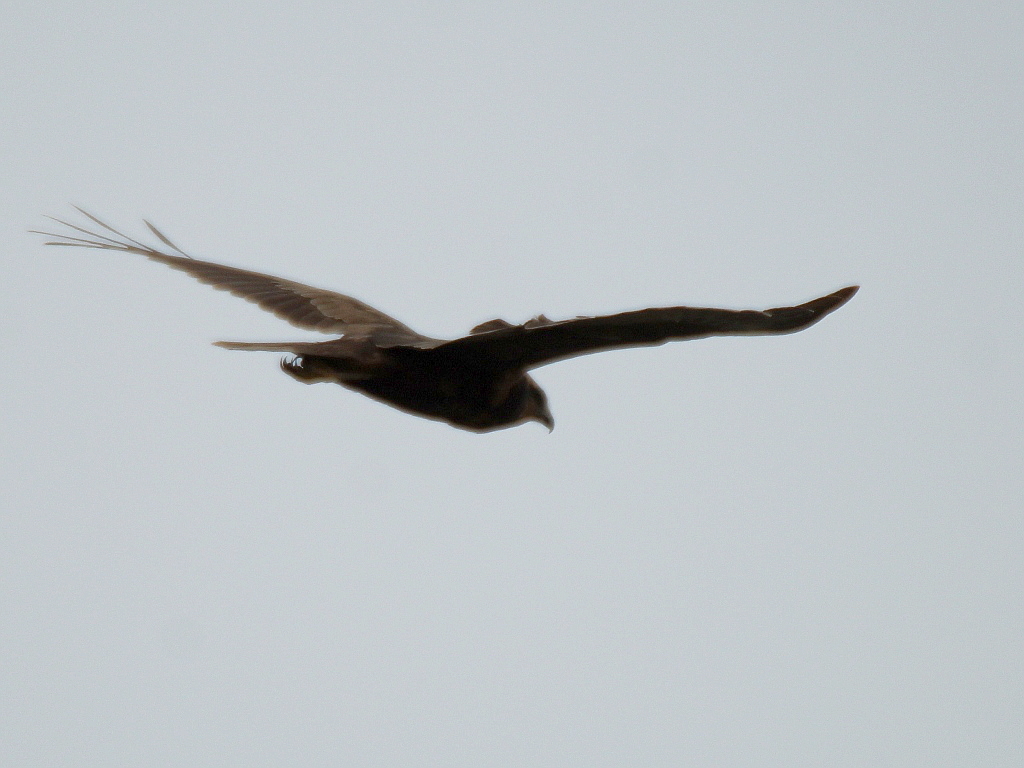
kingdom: Animalia
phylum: Chordata
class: Aves
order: Accipitriformes
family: Accipitridae
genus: Circus
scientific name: Circus aeruginosus
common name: Western marsh harrier
